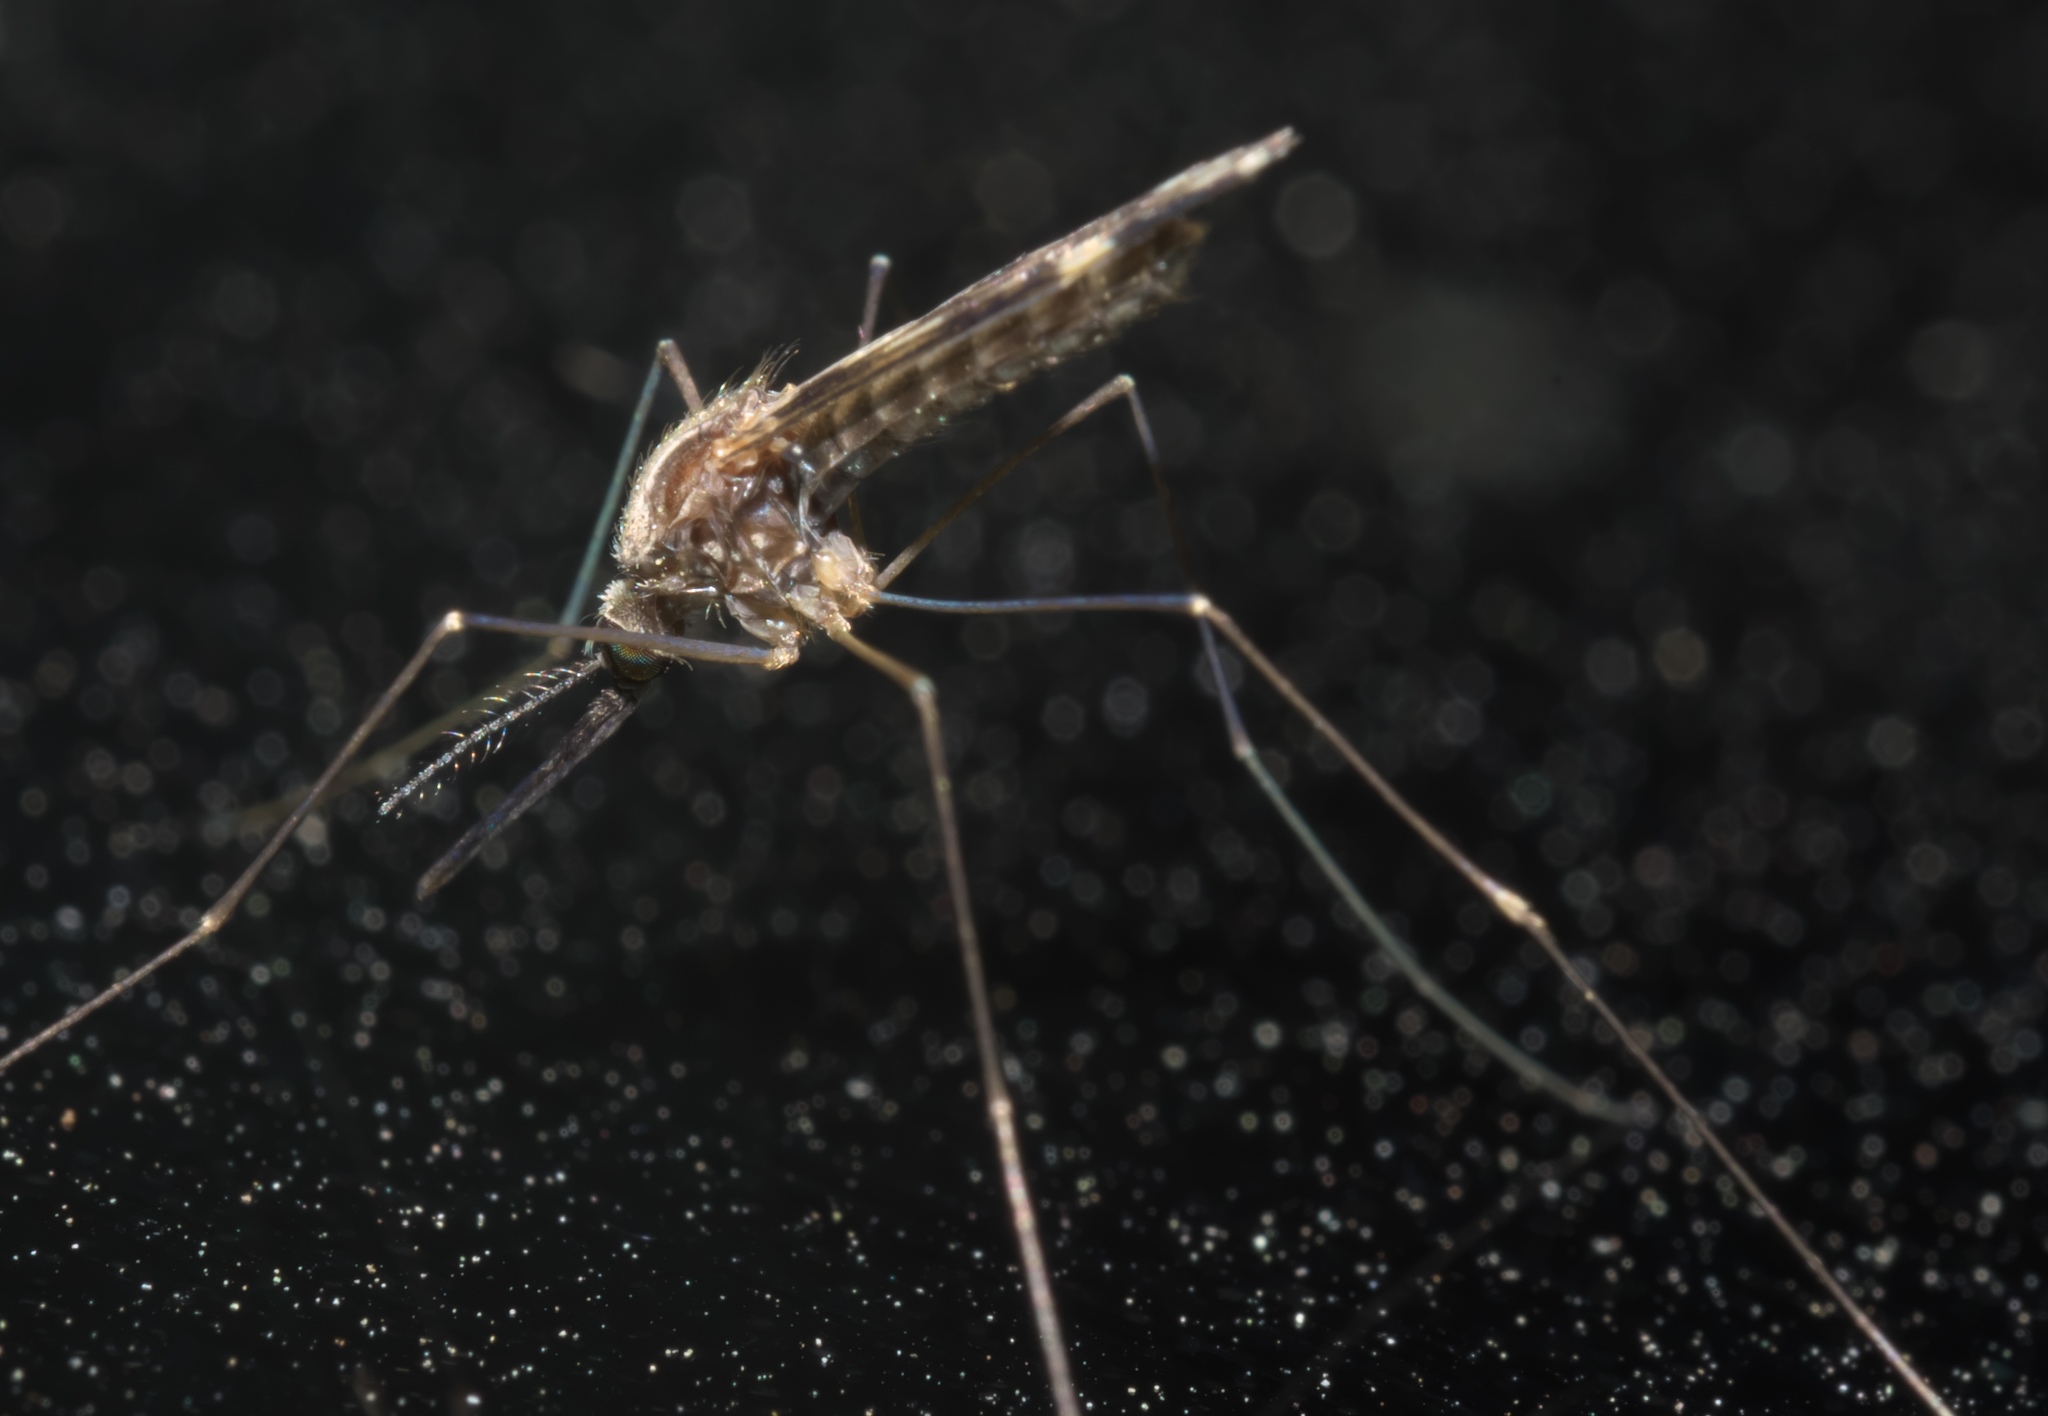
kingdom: Animalia
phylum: Arthropoda
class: Insecta
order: Diptera
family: Culicidae
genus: Anopheles
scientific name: Anopheles punctipennis
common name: Woodland malaria mosquito
